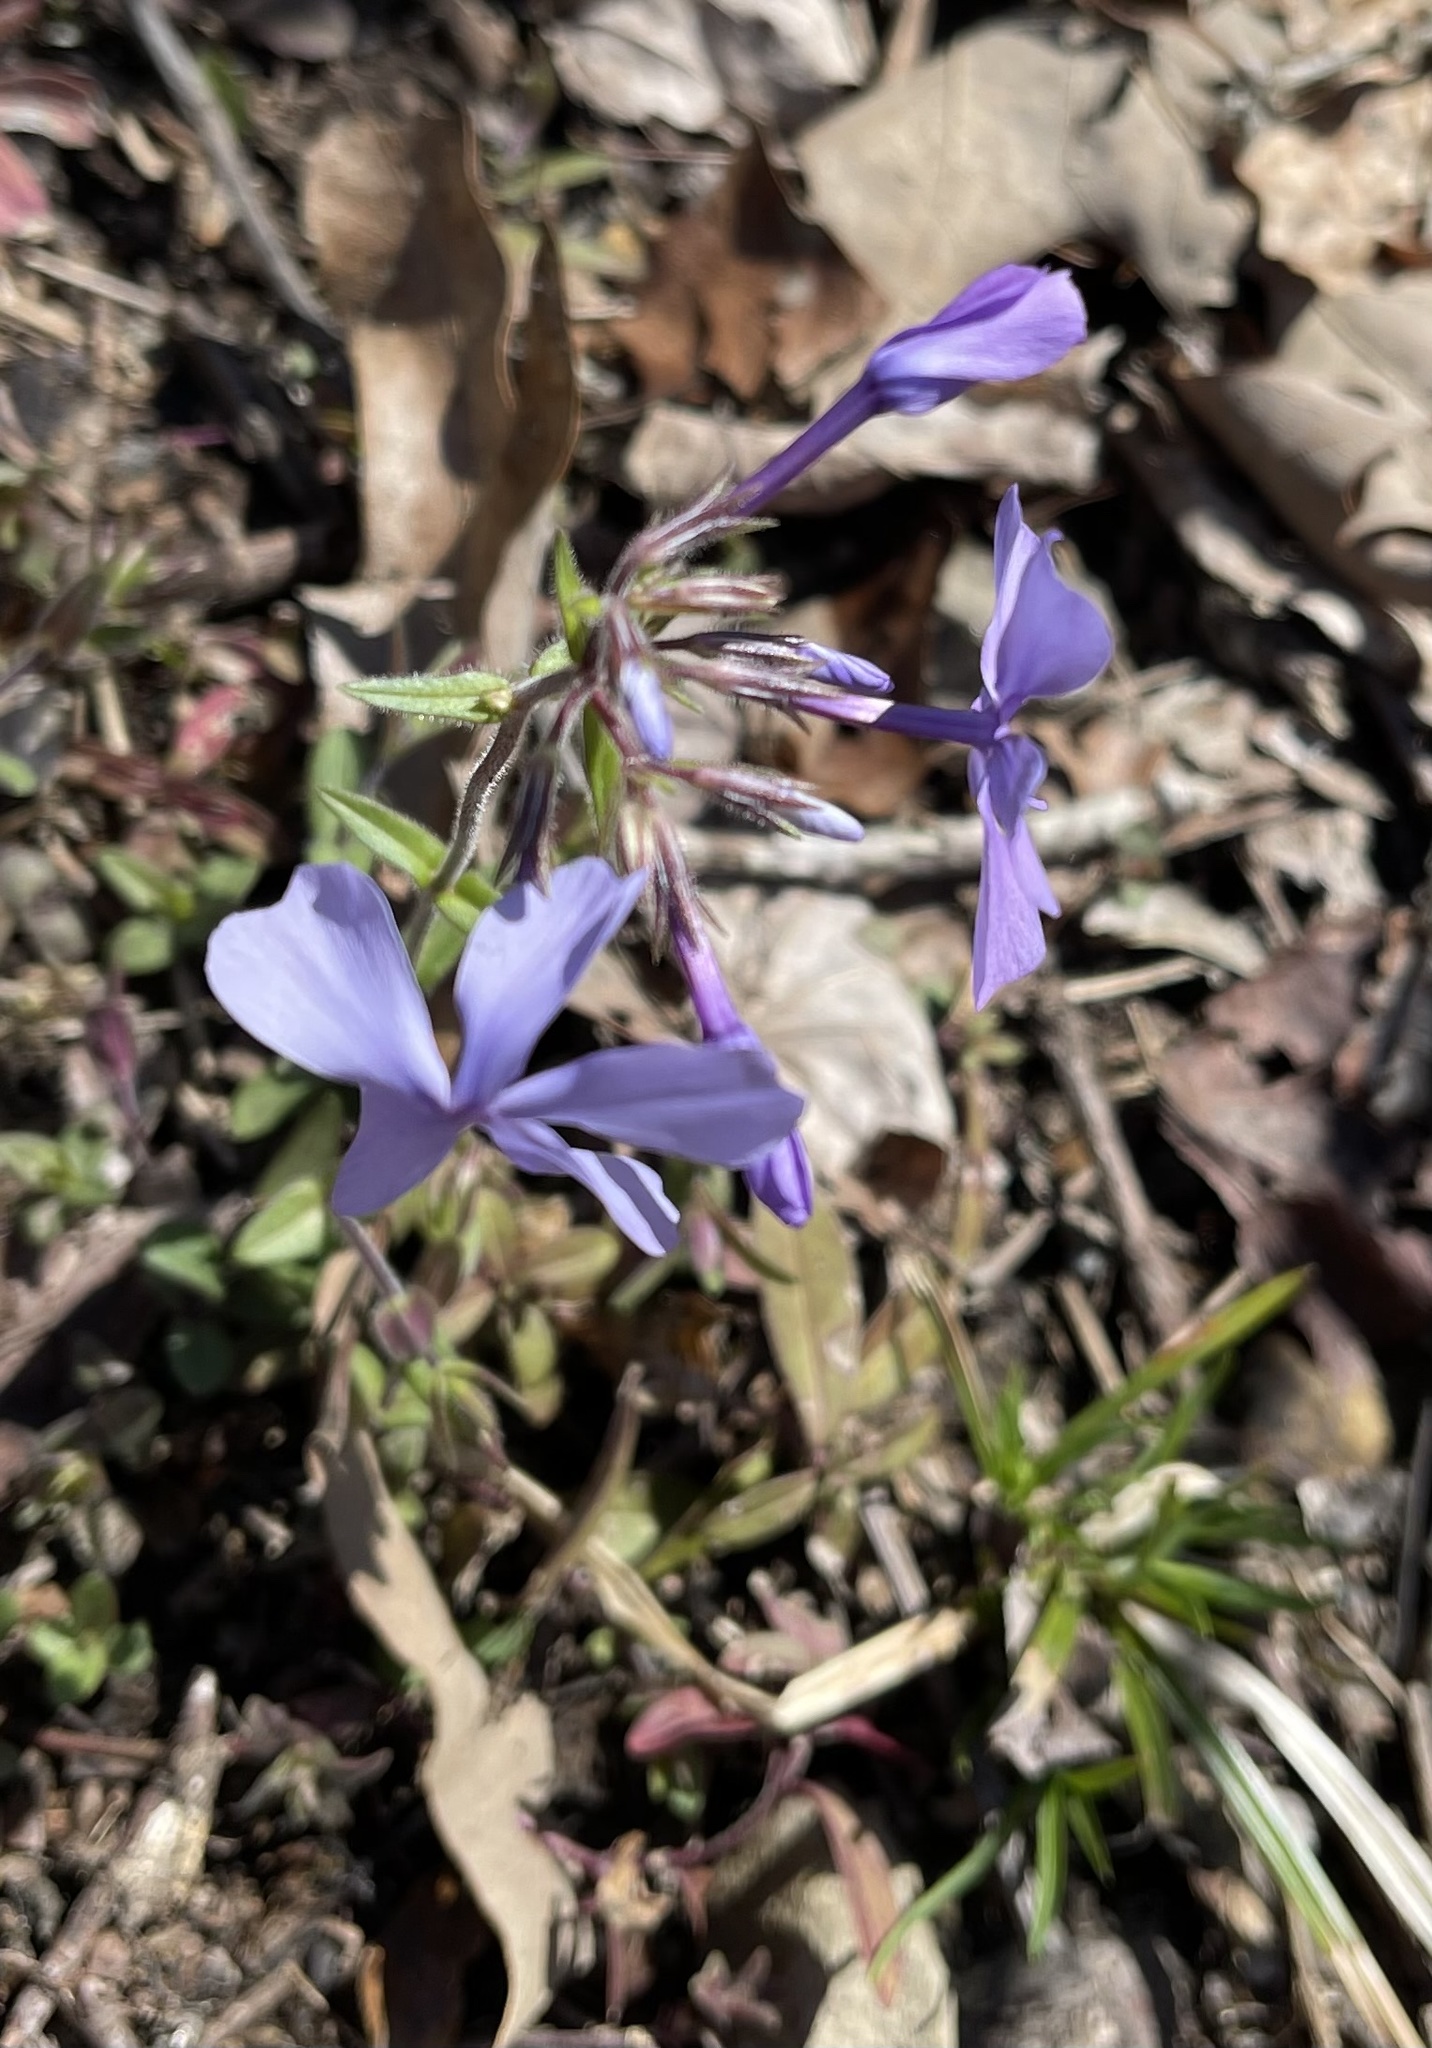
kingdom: Plantae
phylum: Tracheophyta
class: Magnoliopsida
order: Ericales
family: Polemoniaceae
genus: Phlox
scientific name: Phlox divaricata
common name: Blue phlox
